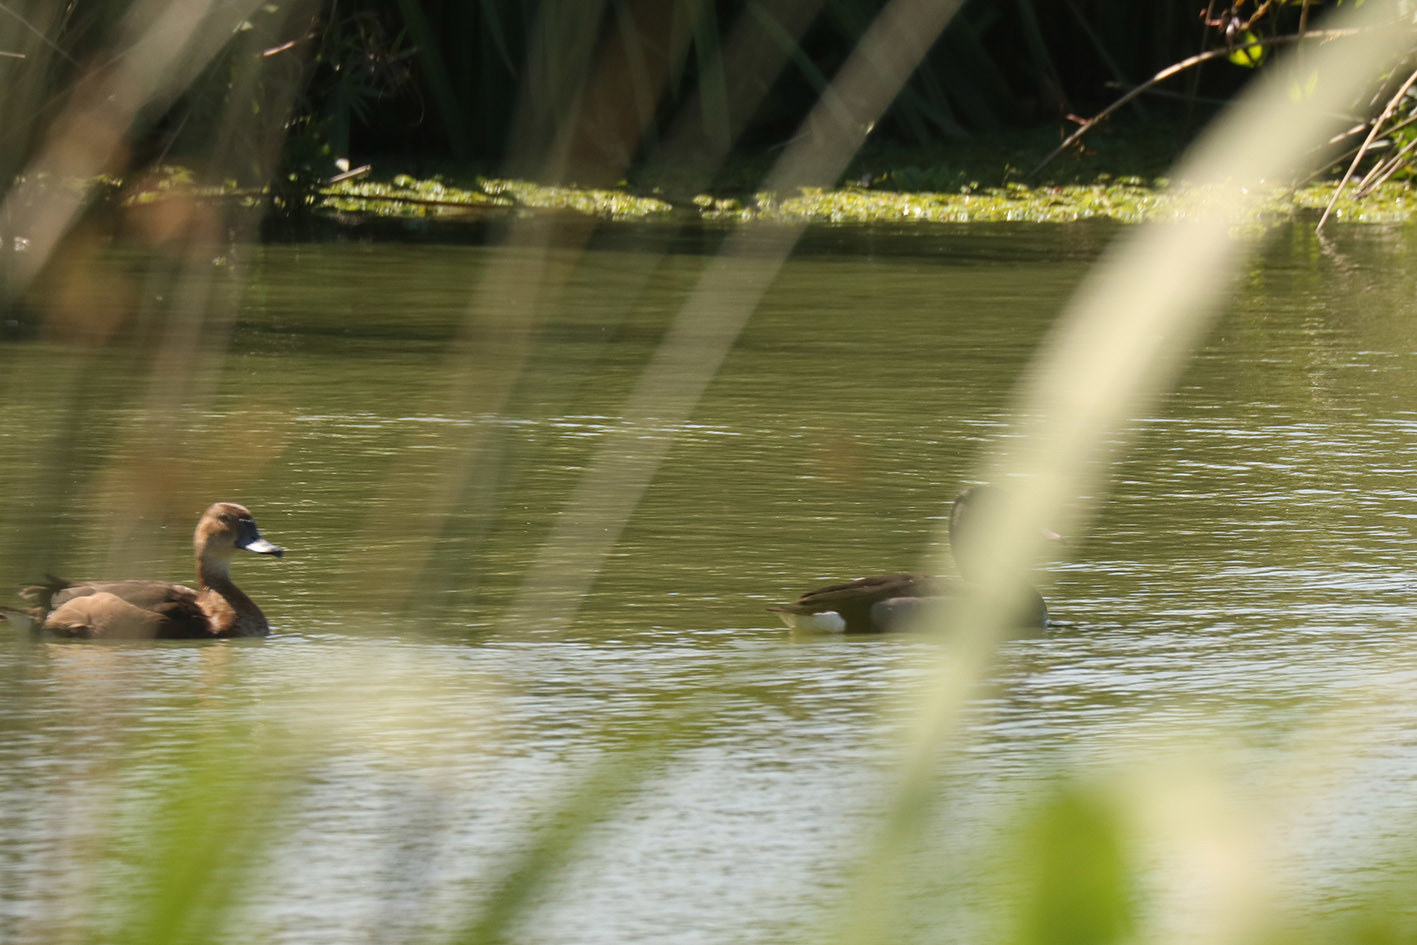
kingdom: Animalia
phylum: Chordata
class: Aves
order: Anseriformes
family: Anatidae
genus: Netta
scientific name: Netta peposaca
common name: Rosy-billed pochard
